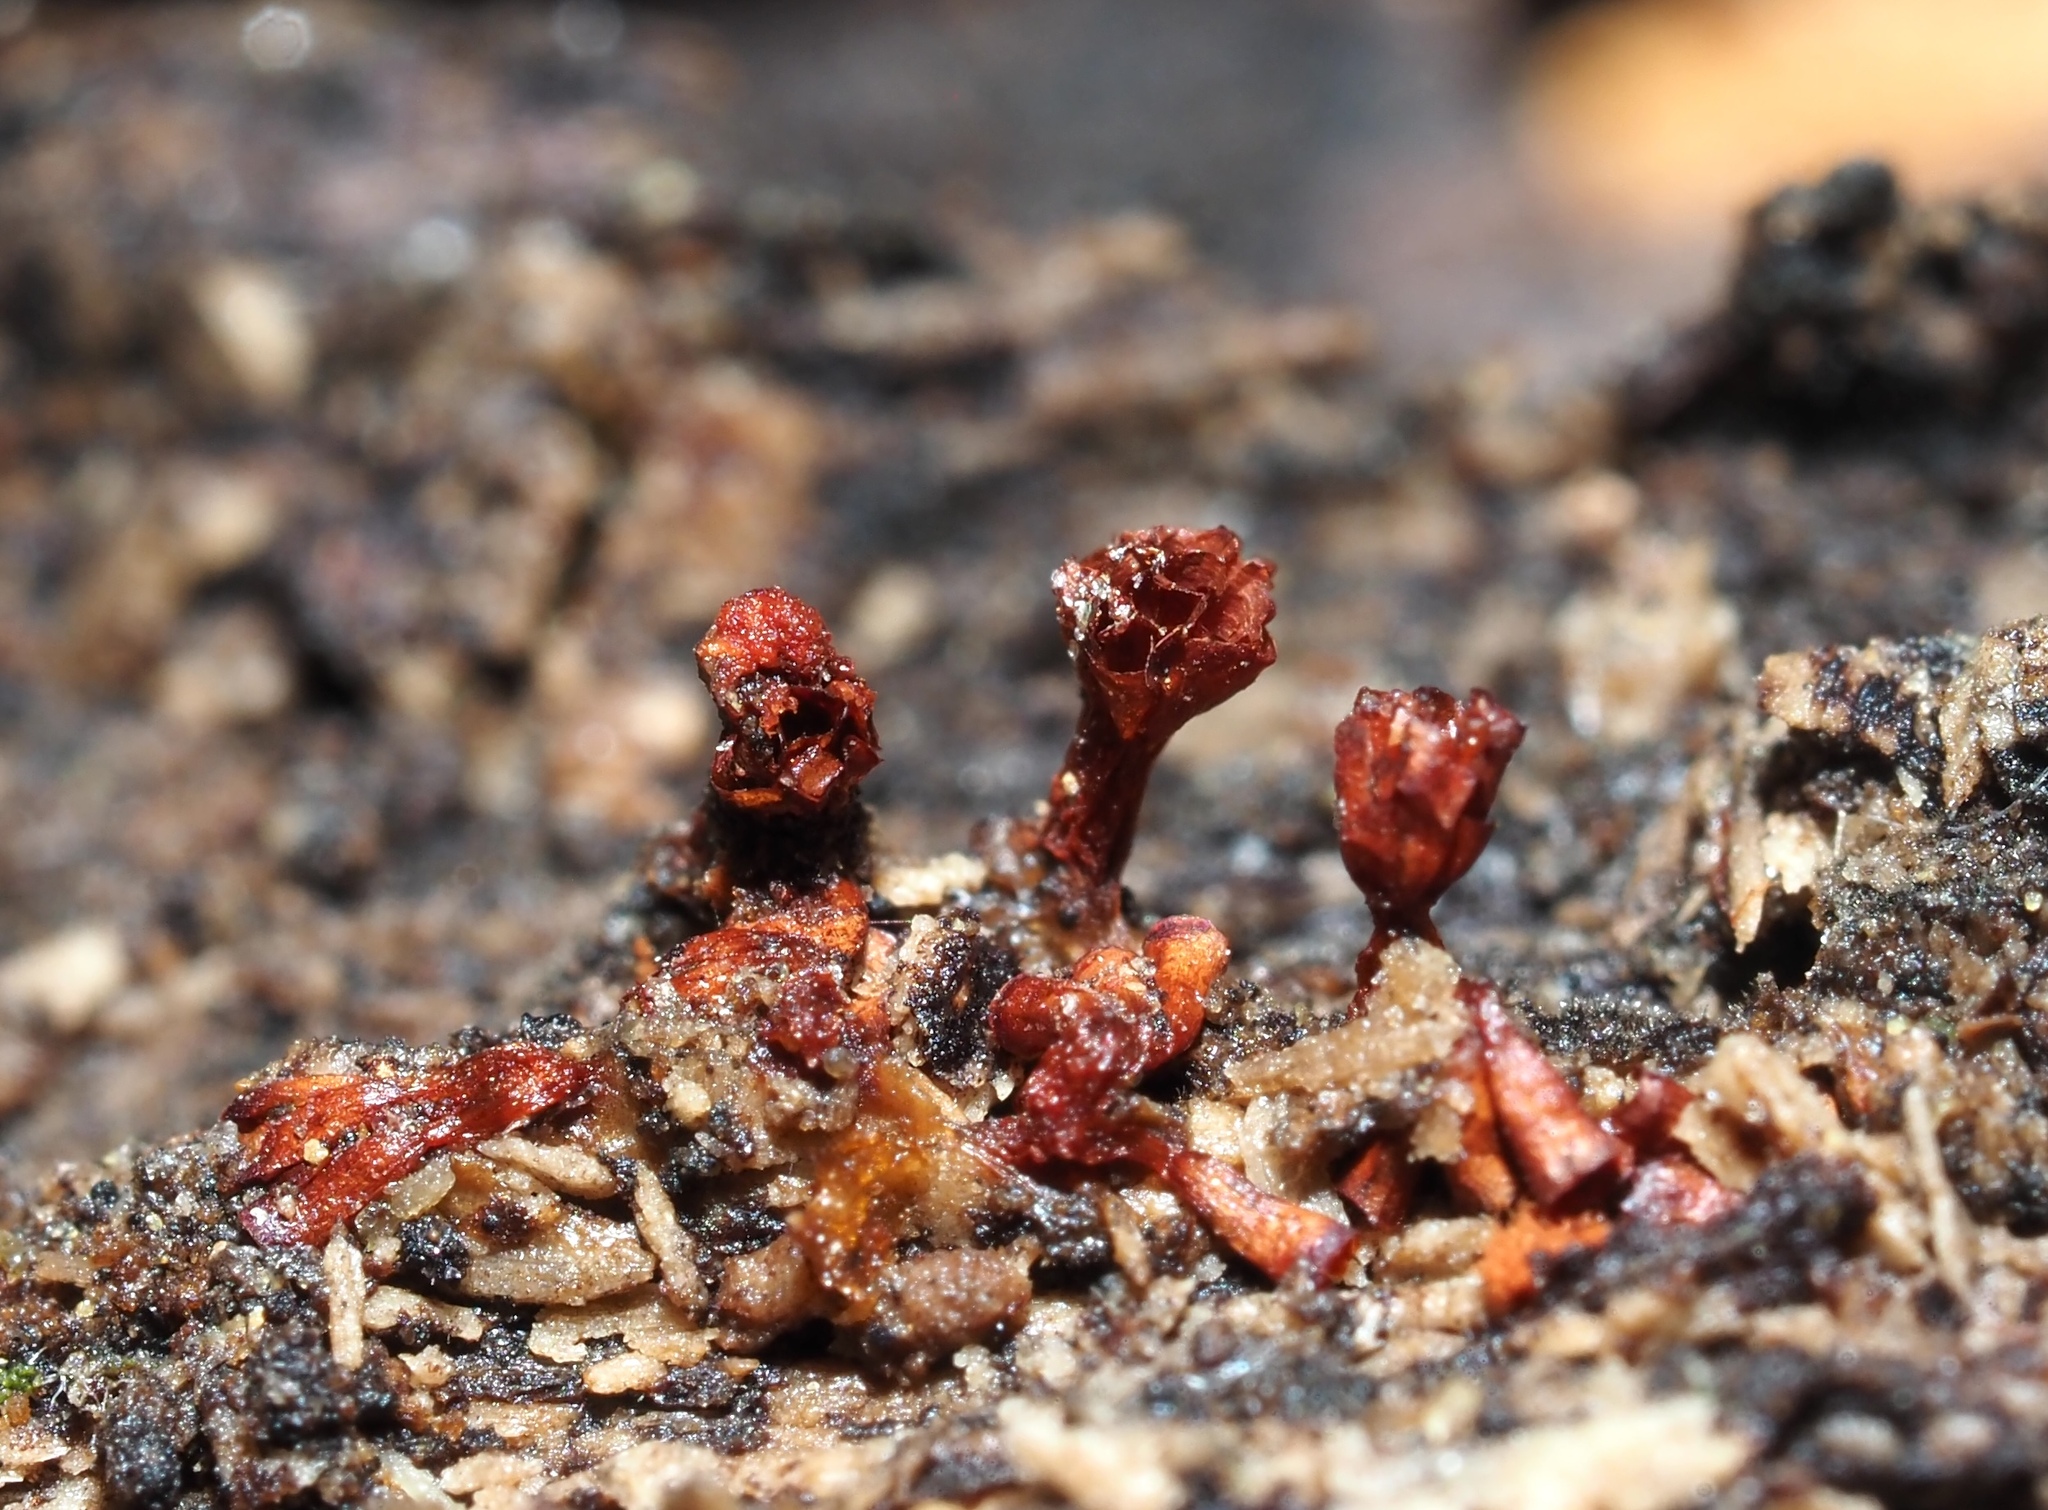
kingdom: Protozoa
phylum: Mycetozoa
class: Myxomycetes
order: Trichiales
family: Trichiaceae
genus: Metatrichia
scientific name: Metatrichia vesparia
